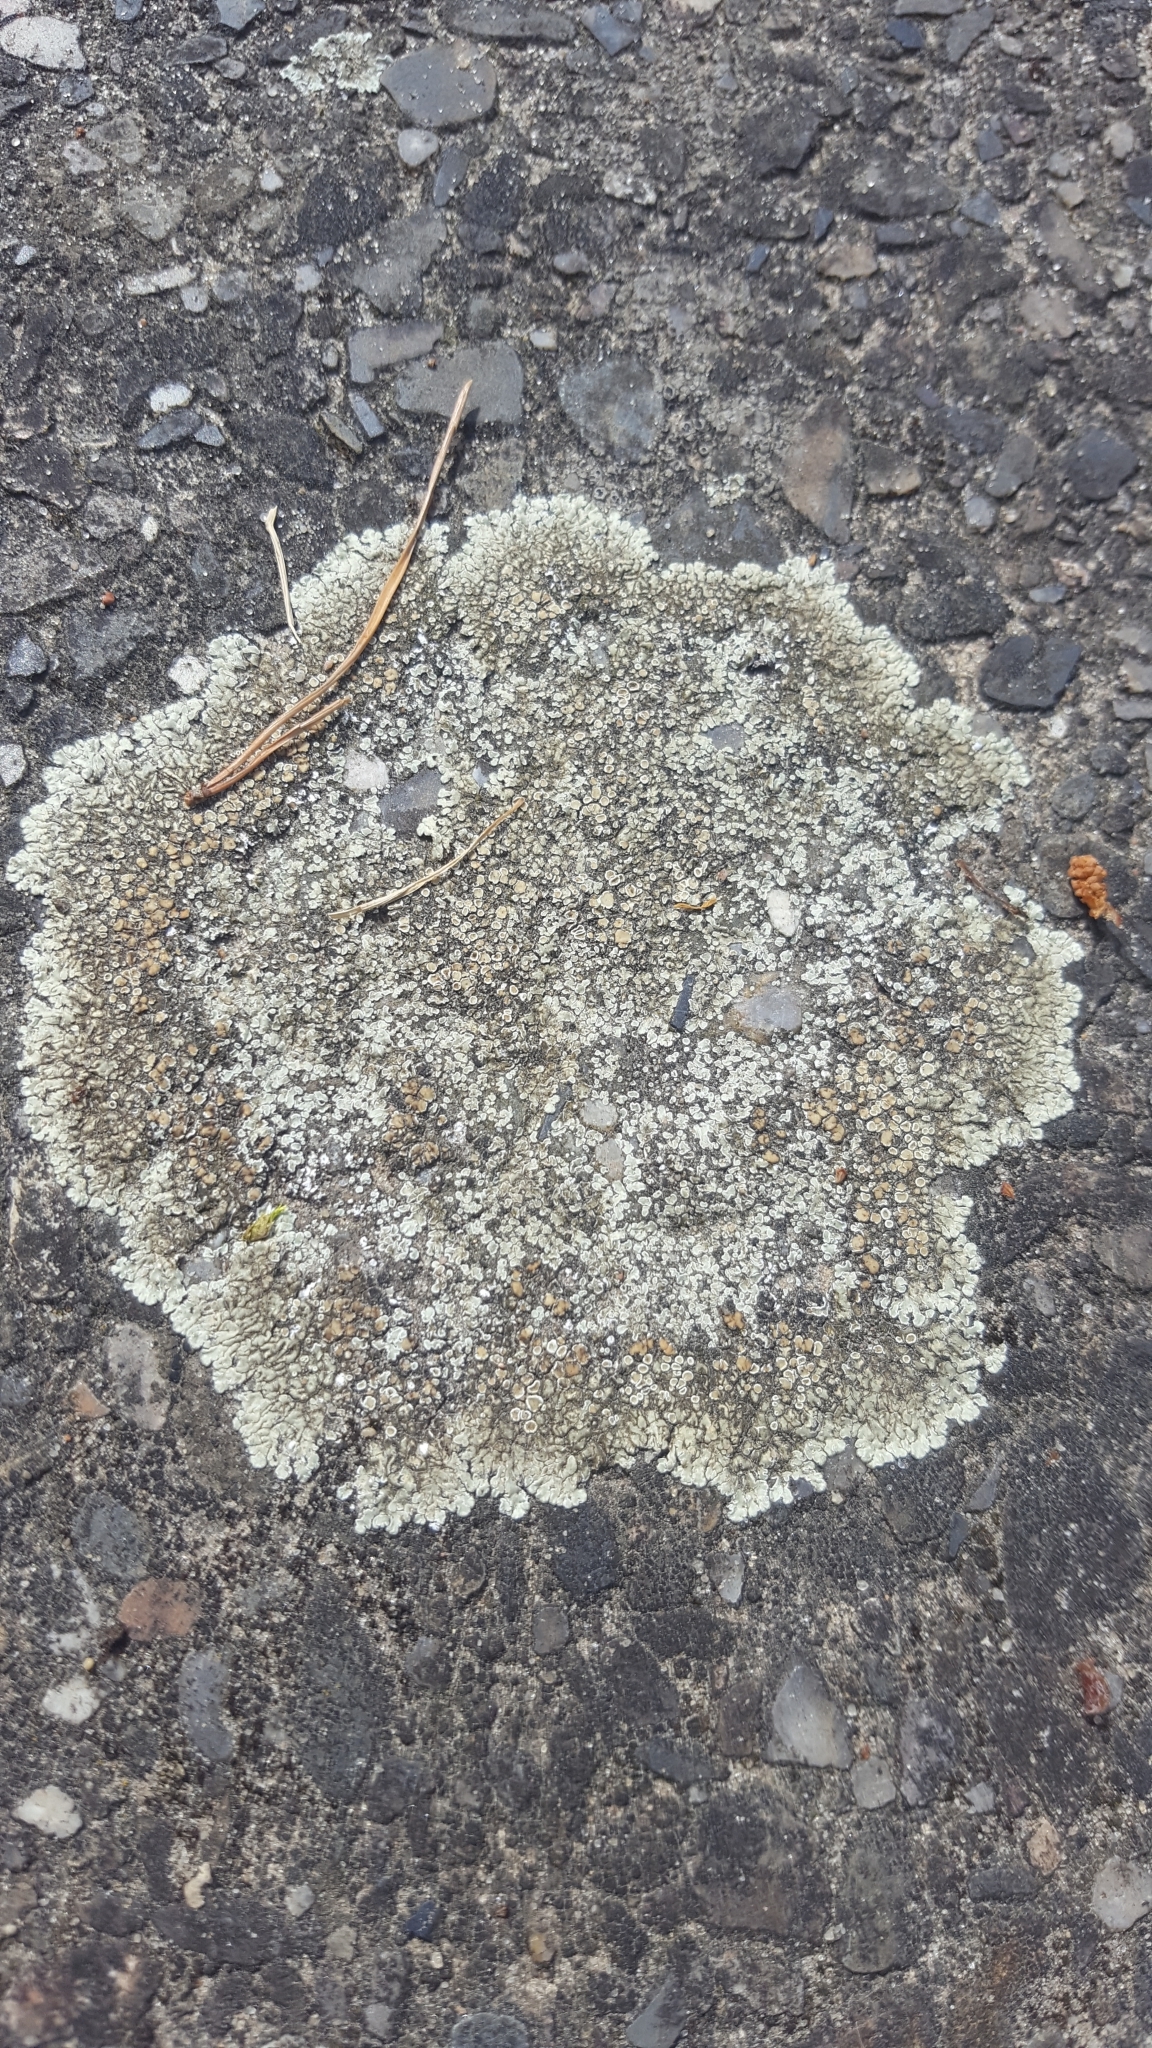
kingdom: Fungi
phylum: Ascomycota
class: Lecanoromycetes
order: Lecanorales
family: Lecanoraceae
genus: Protoparmeliopsis
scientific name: Protoparmeliopsis muralis
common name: Stonewall rim lichen
